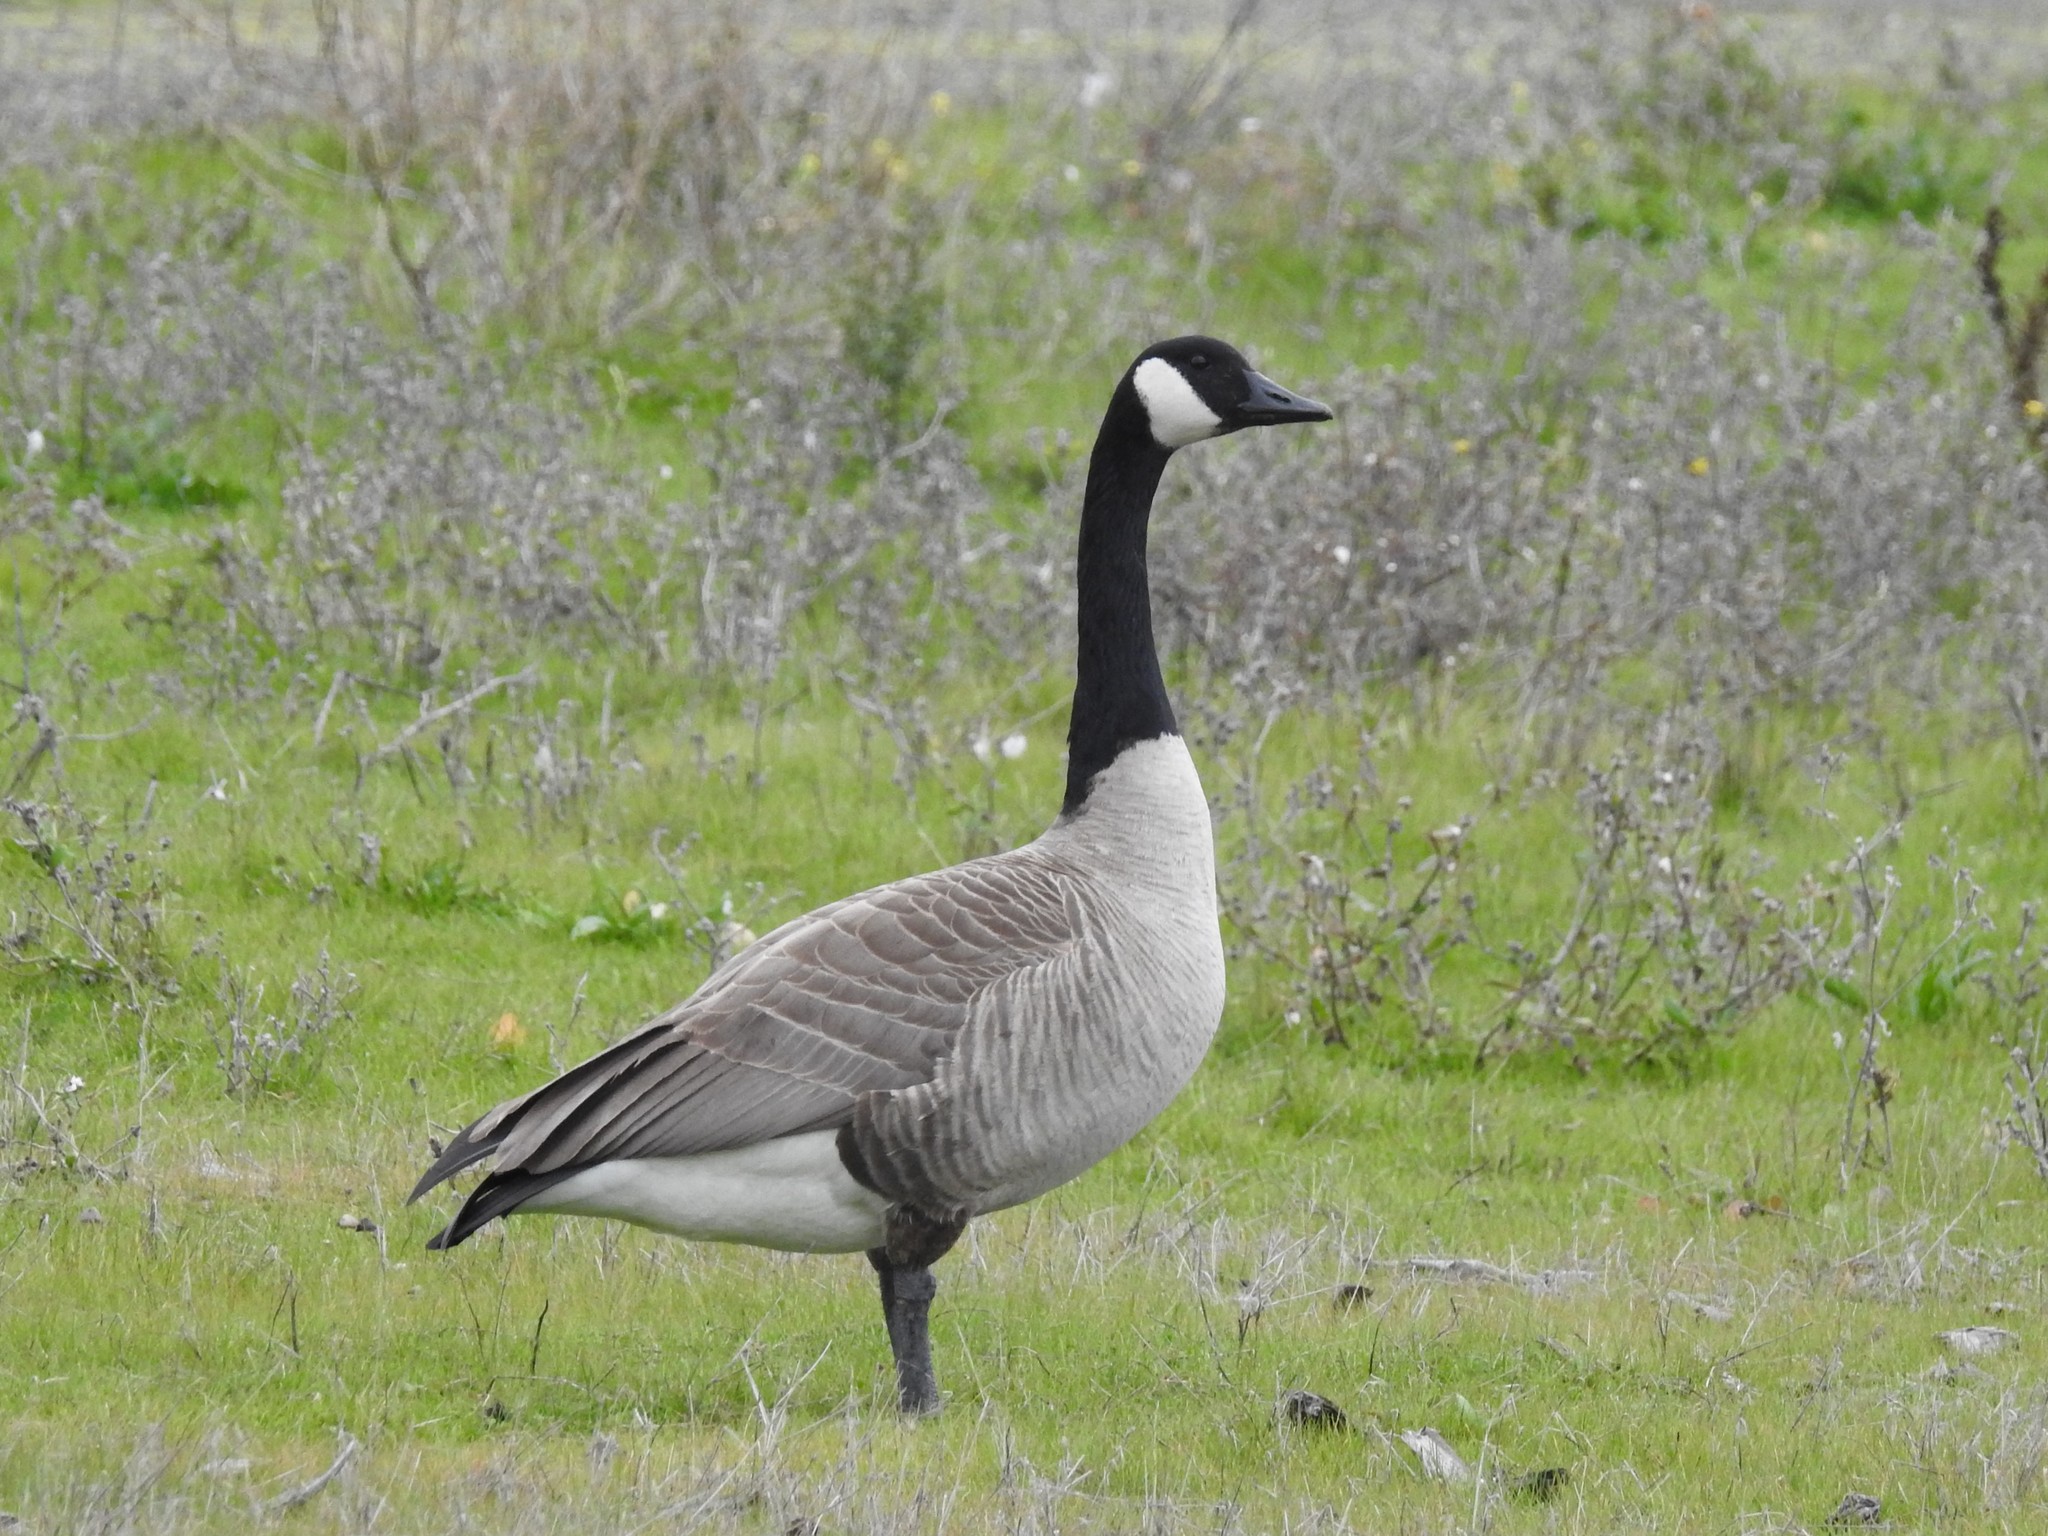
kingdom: Animalia
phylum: Chordata
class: Aves
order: Anseriformes
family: Anatidae
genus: Branta
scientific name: Branta canadensis
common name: Canada goose
